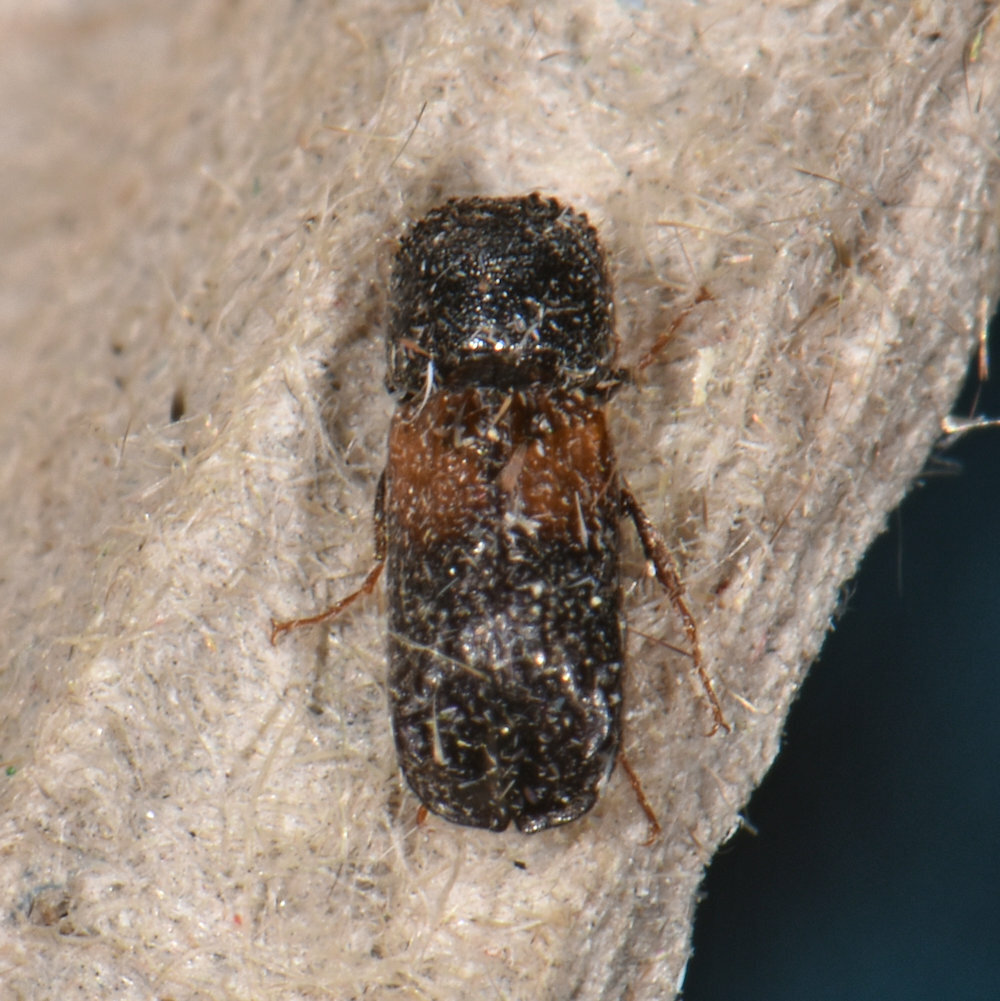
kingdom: Animalia
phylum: Arthropoda
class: Insecta
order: Coleoptera
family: Bostrichidae
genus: Xylobiops
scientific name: Xylobiops basilaris
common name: Red-shouldered bostrichid
